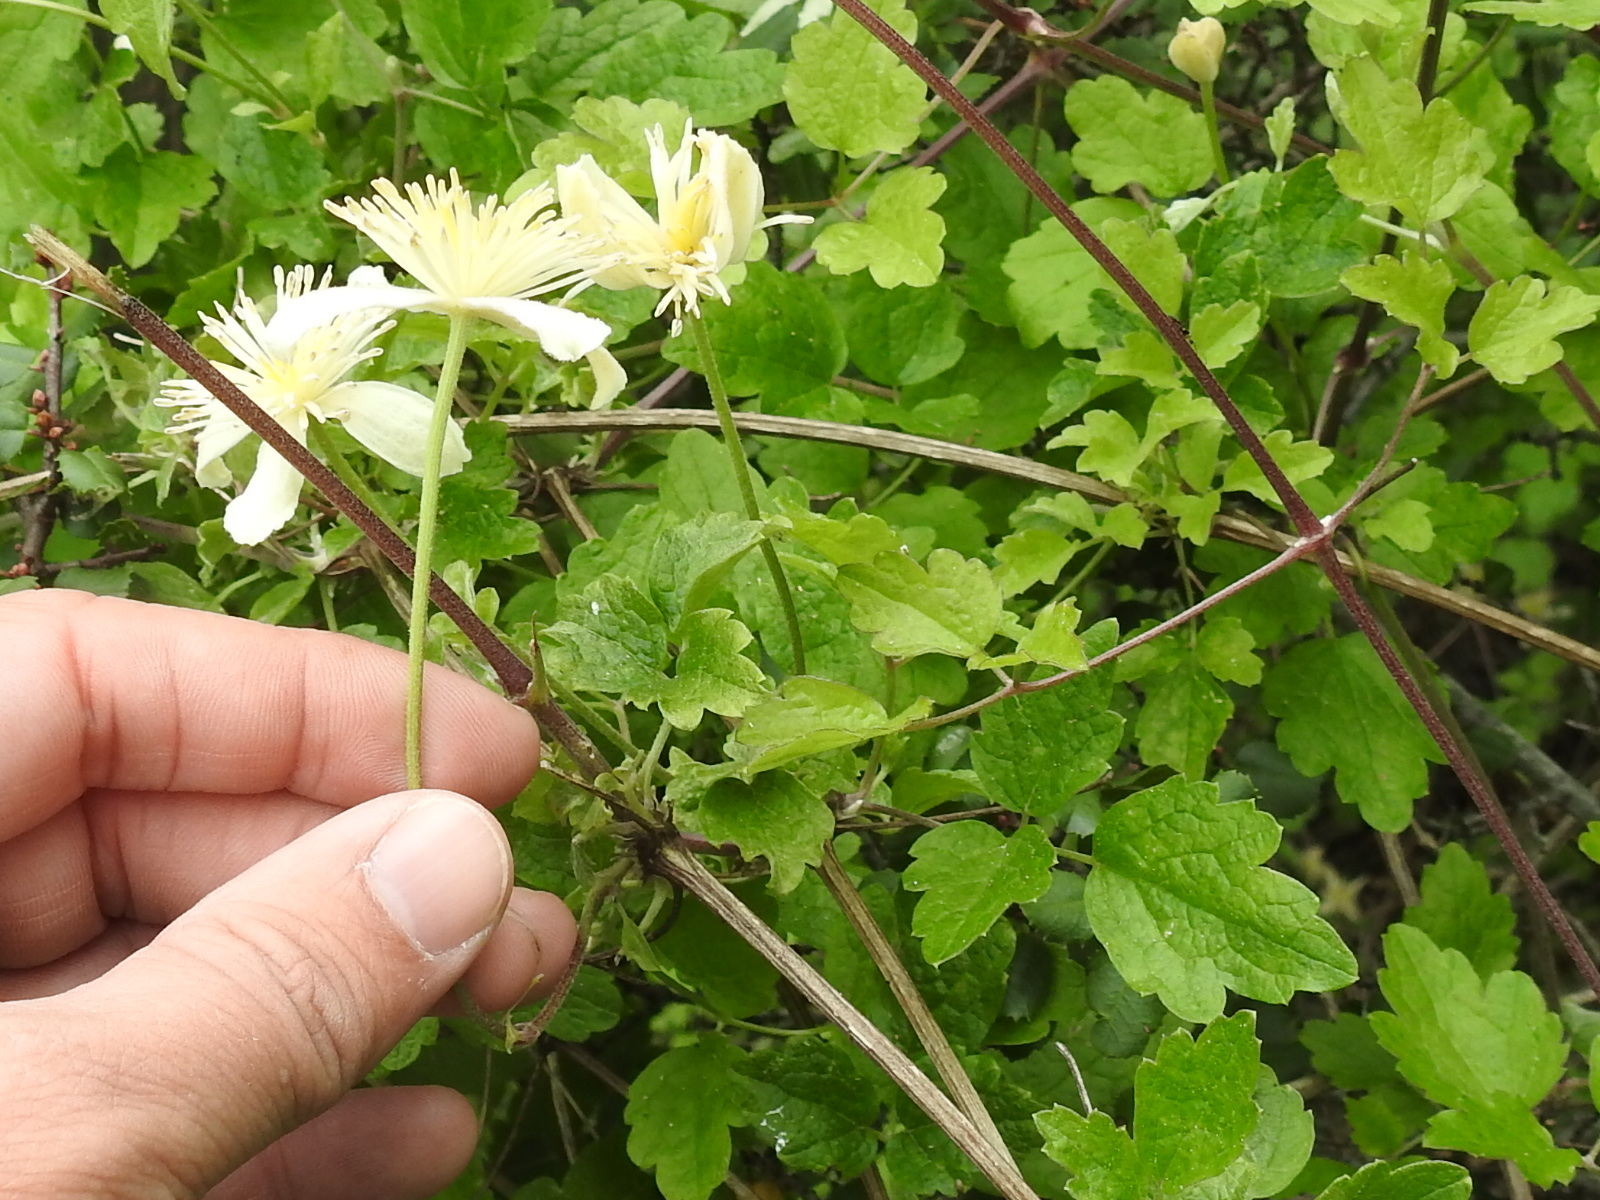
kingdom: Plantae
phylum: Tracheophyta
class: Magnoliopsida
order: Ranunculales
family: Ranunculaceae
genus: Clematis
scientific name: Clematis lasiantha
